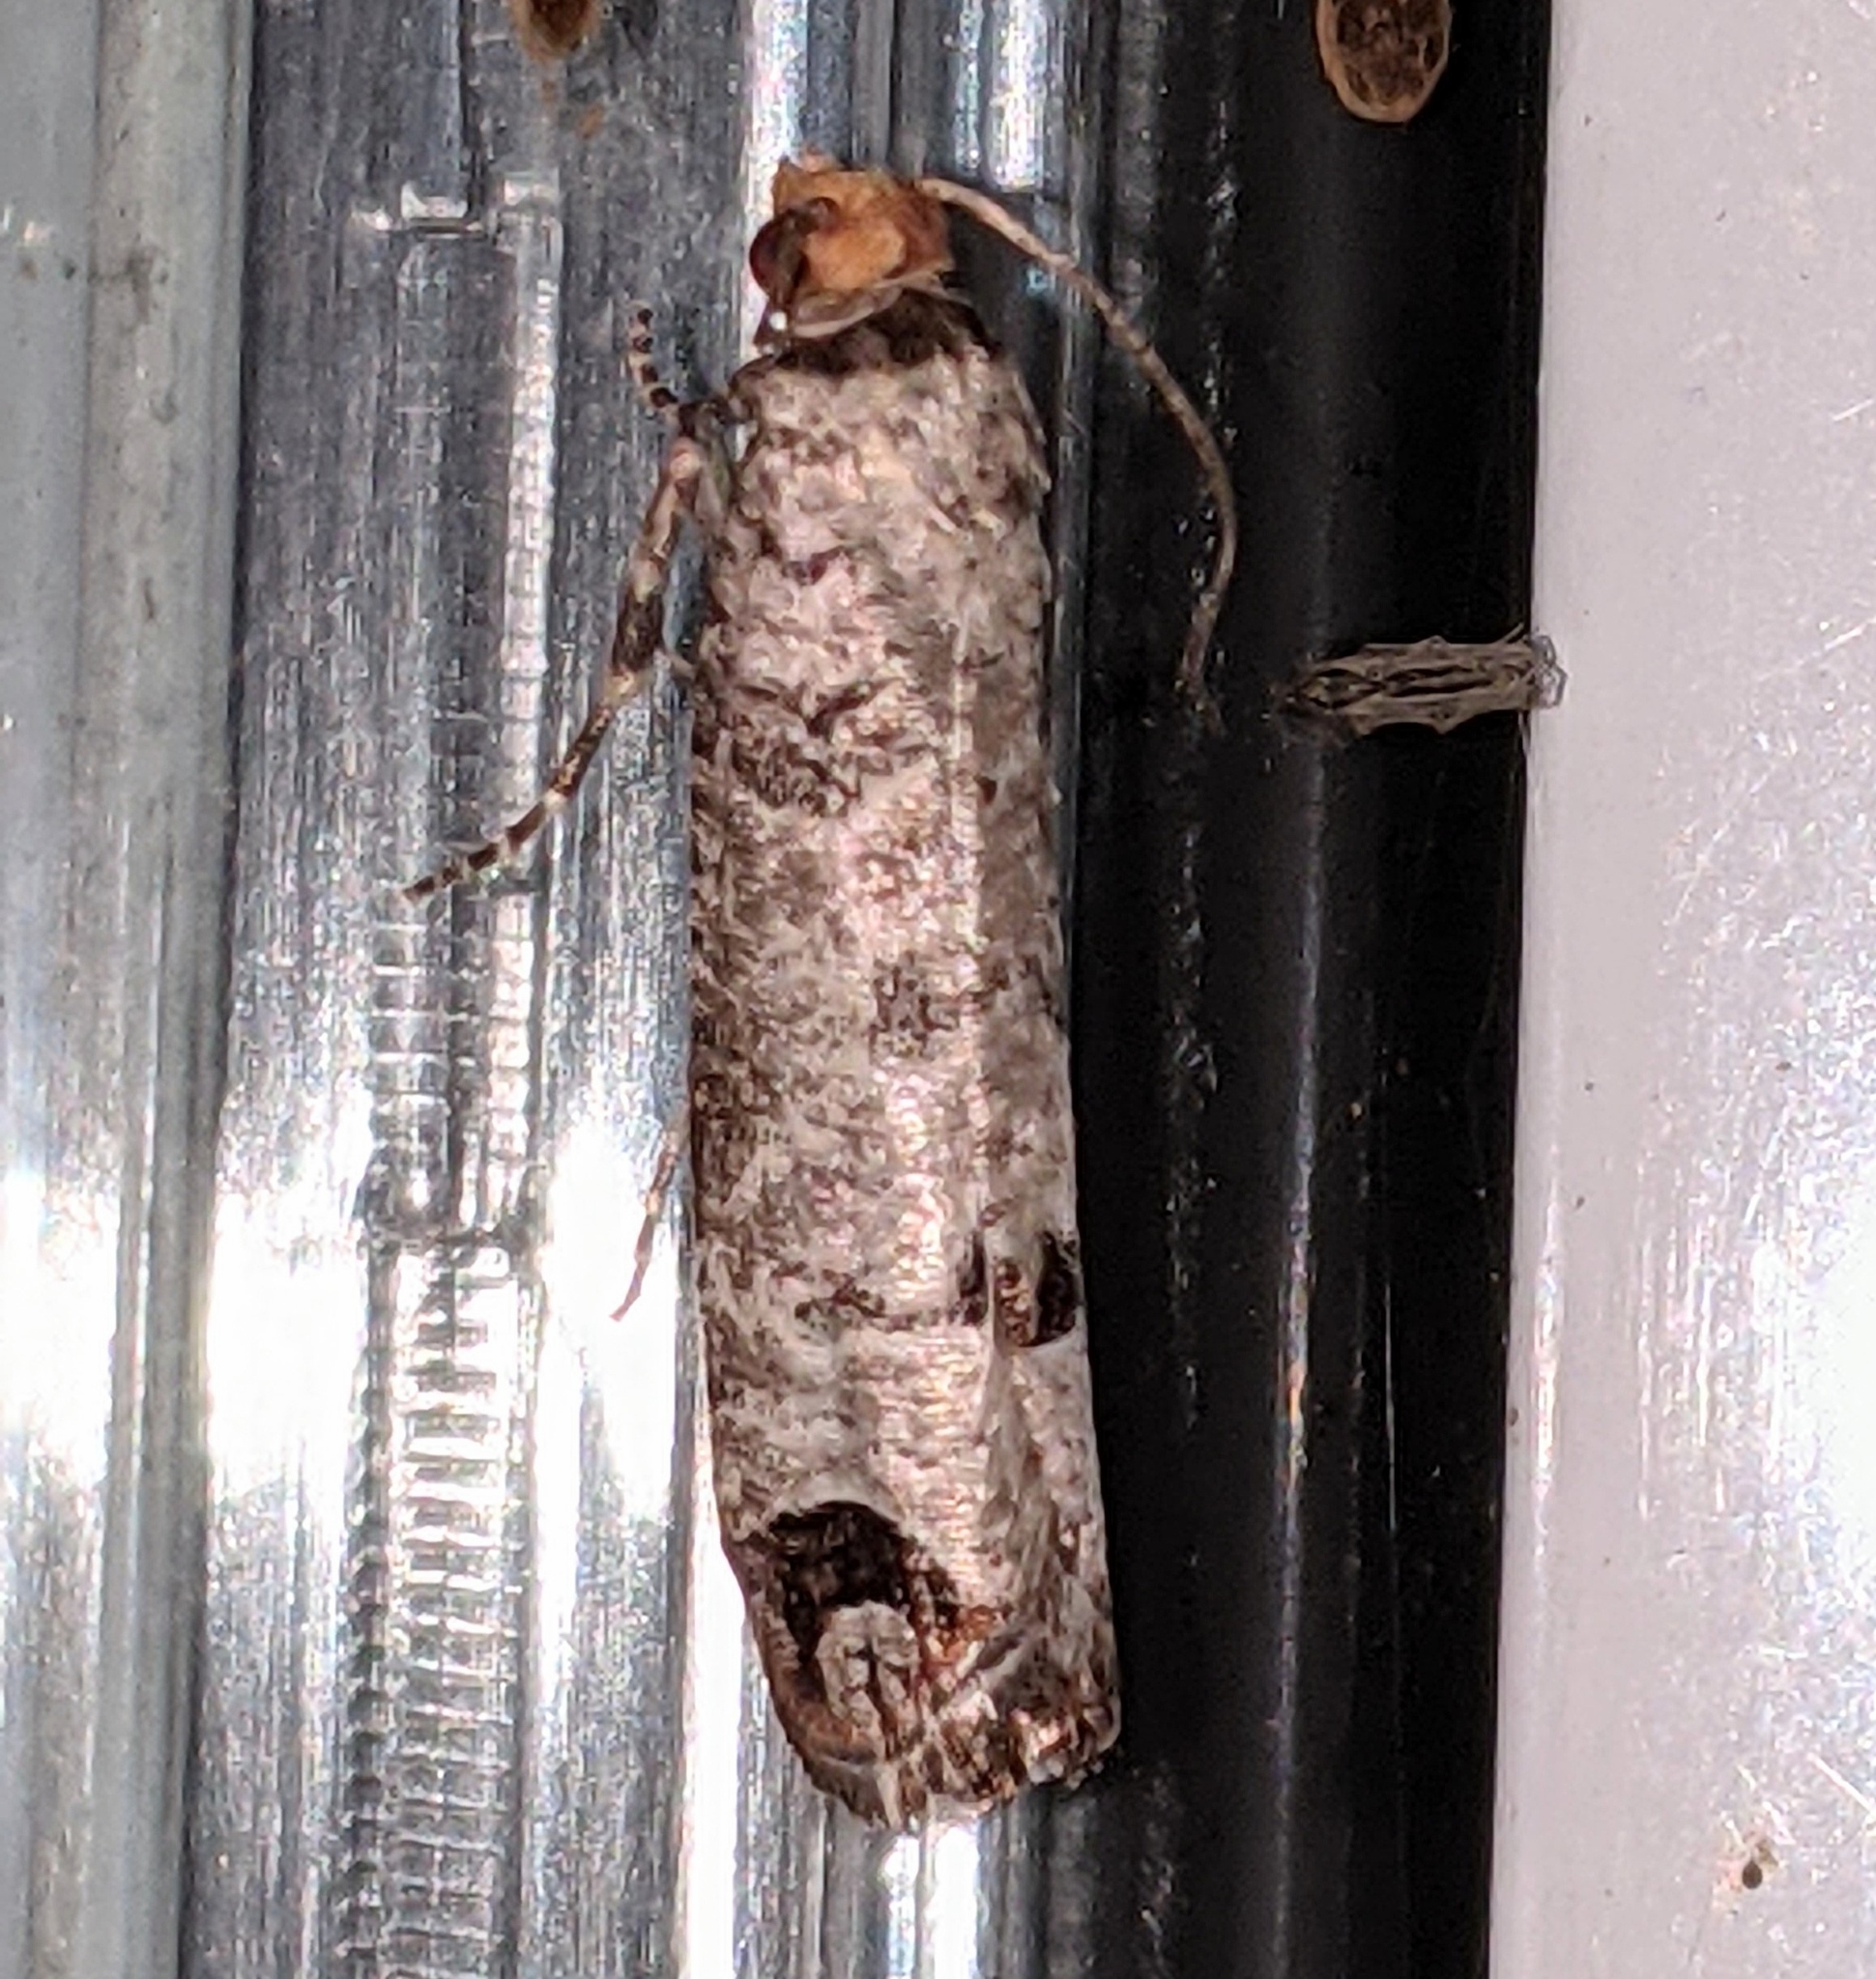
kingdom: Animalia
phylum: Arthropoda
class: Insecta
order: Lepidoptera
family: Tortricidae
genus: Retinia
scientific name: Retinia picicolana
